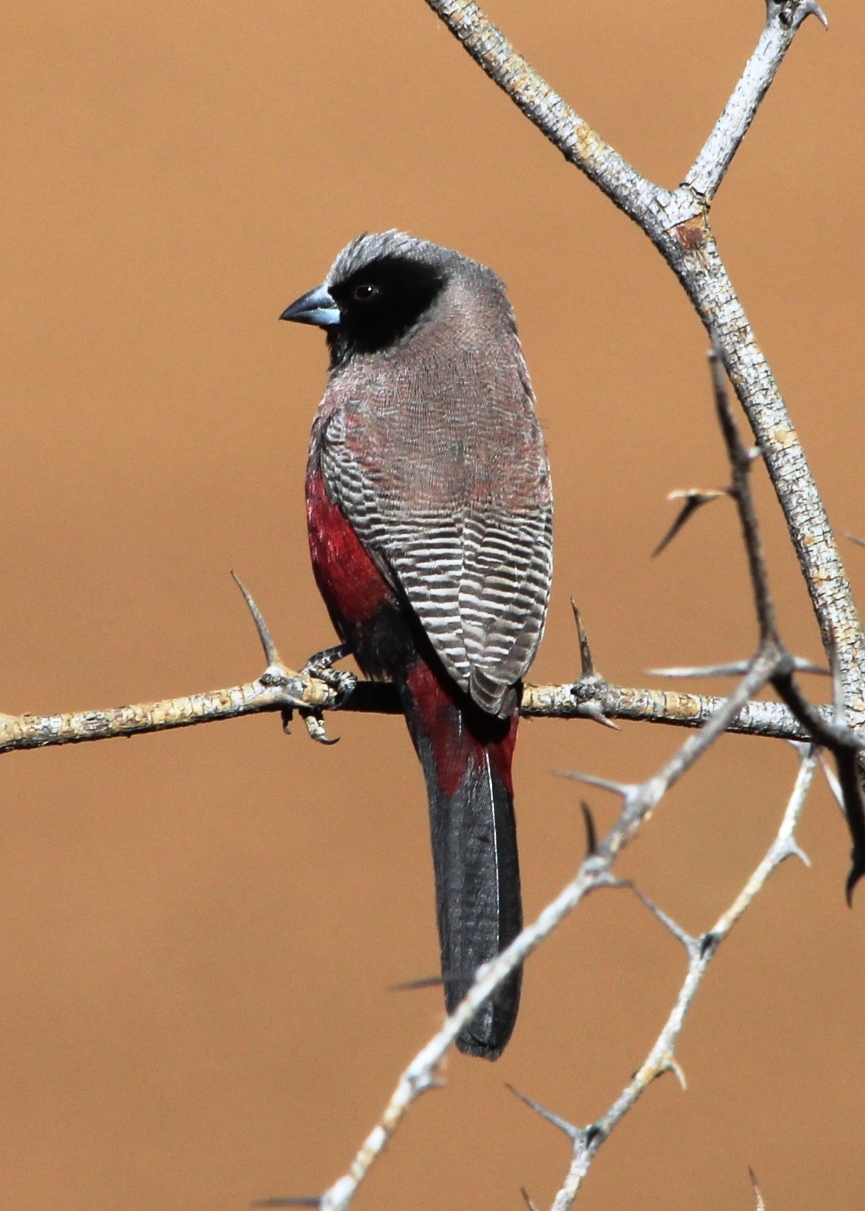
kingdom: Animalia
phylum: Chordata
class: Aves
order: Passeriformes
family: Estrildidae
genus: Estrilda
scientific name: Estrilda erythronotos
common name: Black-faced waxbill
